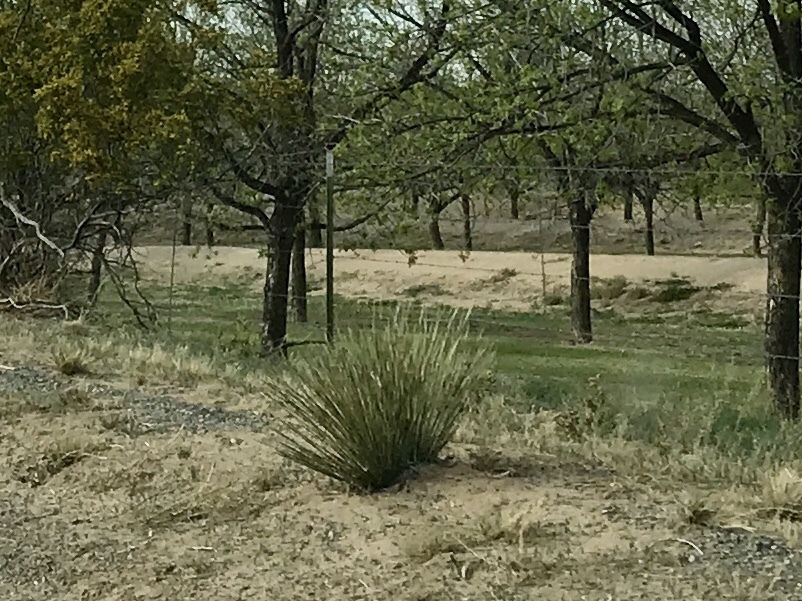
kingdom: Plantae
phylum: Tracheophyta
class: Liliopsida
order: Asparagales
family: Asparagaceae
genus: Yucca
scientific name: Yucca elata
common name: Palmella
